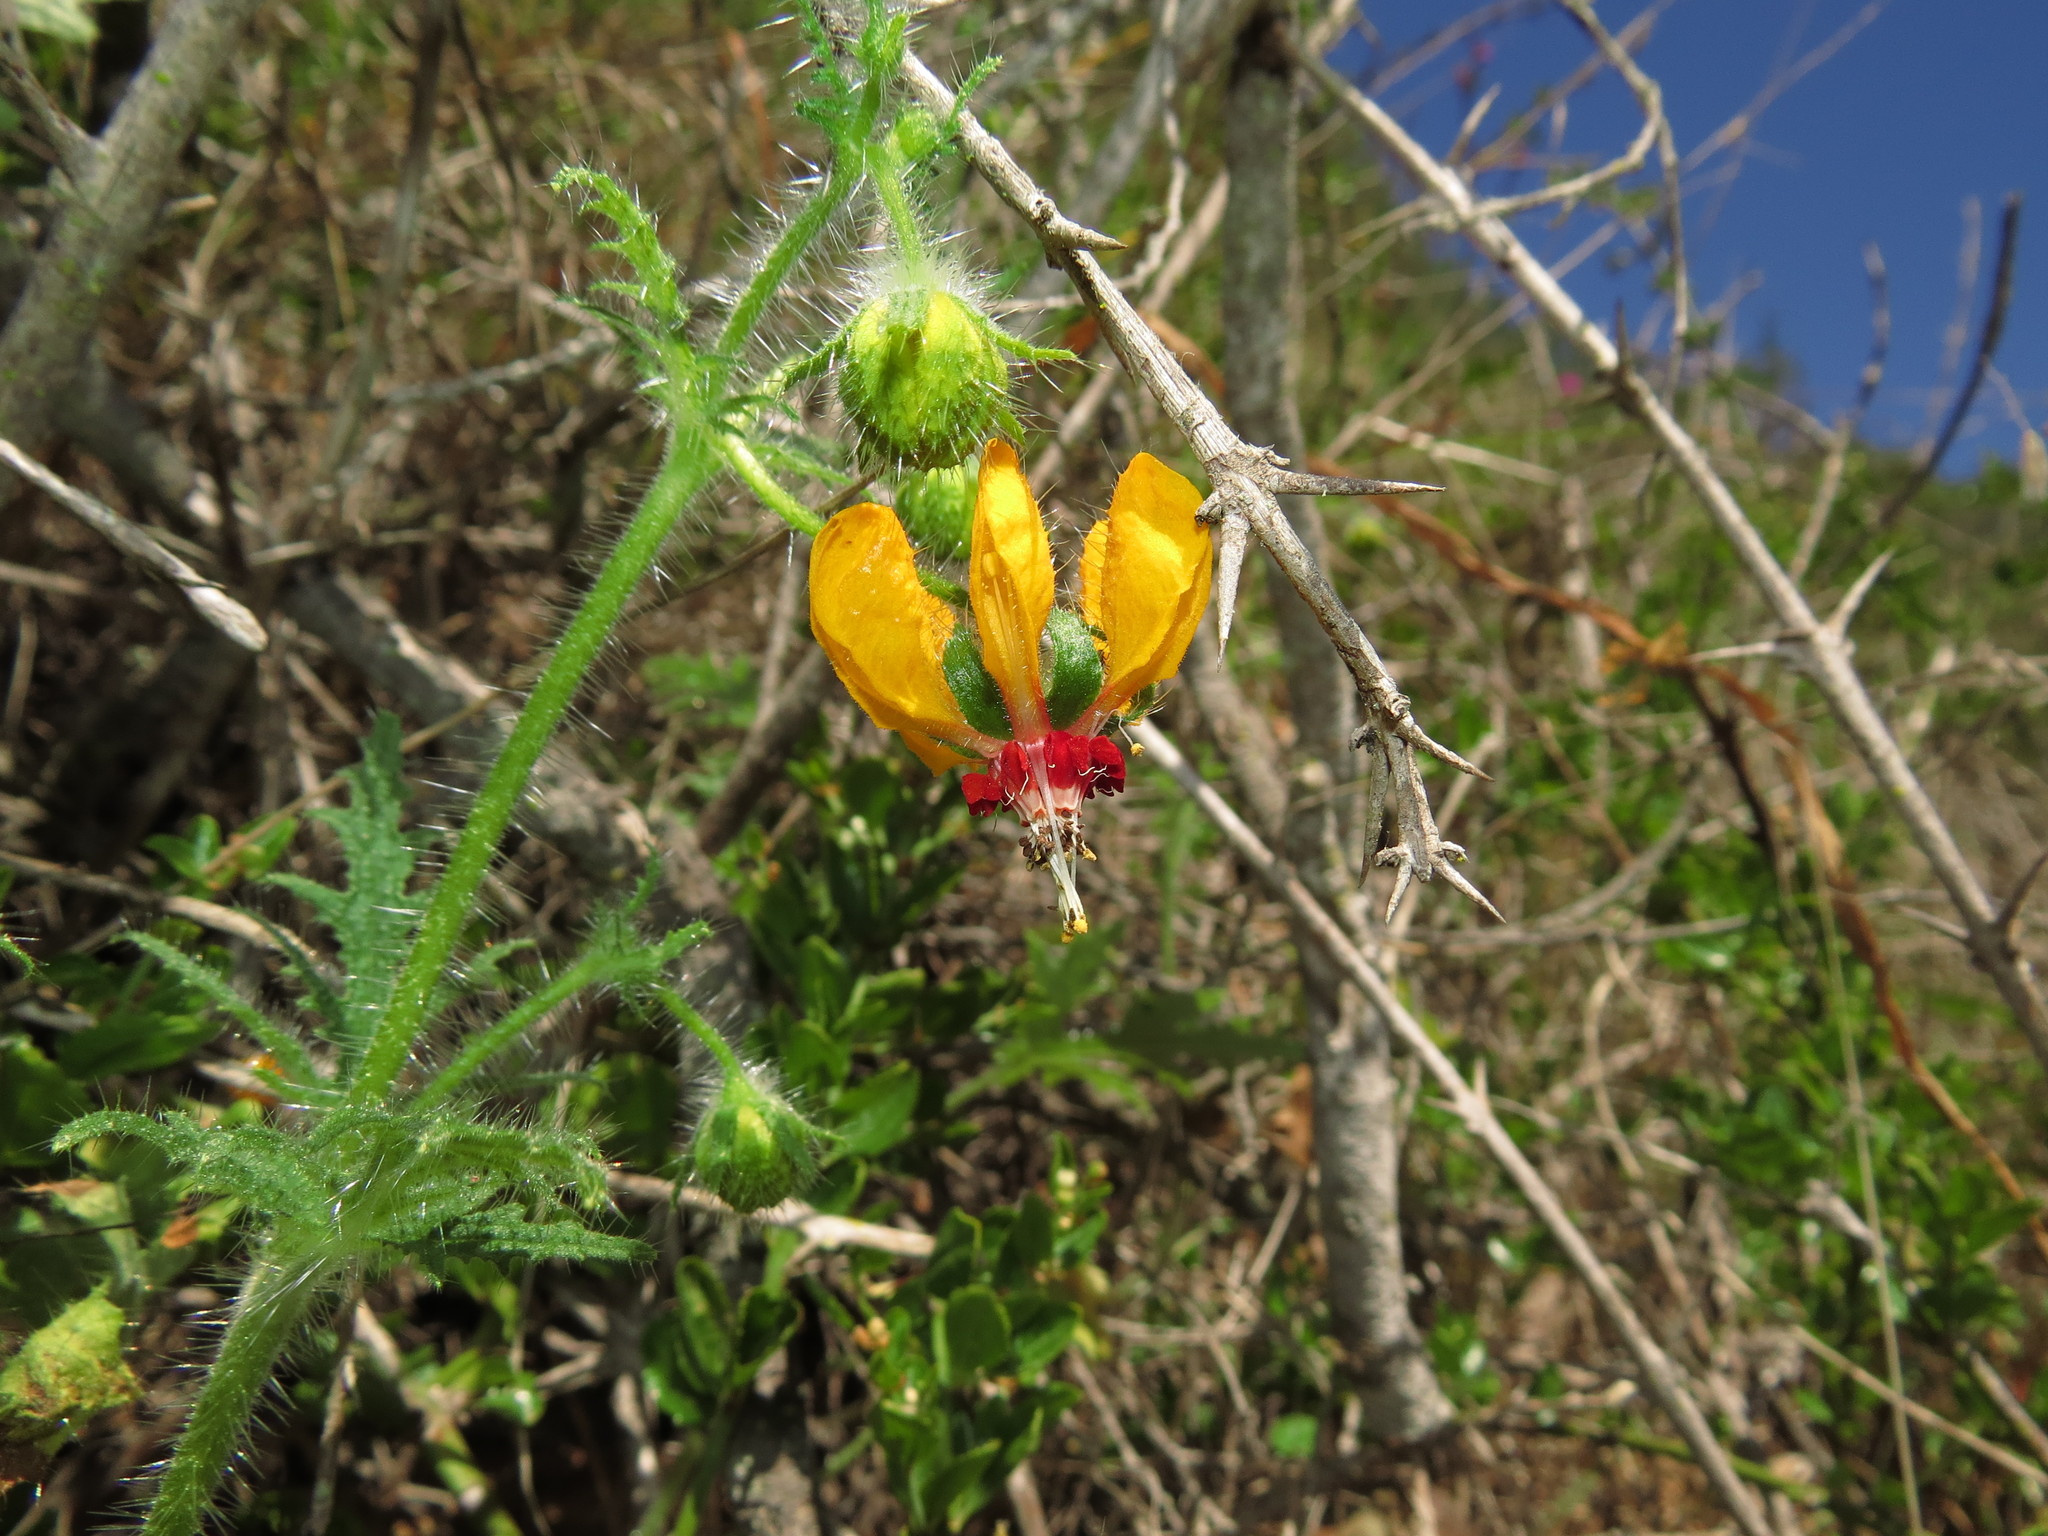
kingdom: Plantae
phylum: Tracheophyta
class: Magnoliopsida
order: Cornales
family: Loasaceae
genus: Loasa
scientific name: Loasa tricolor
